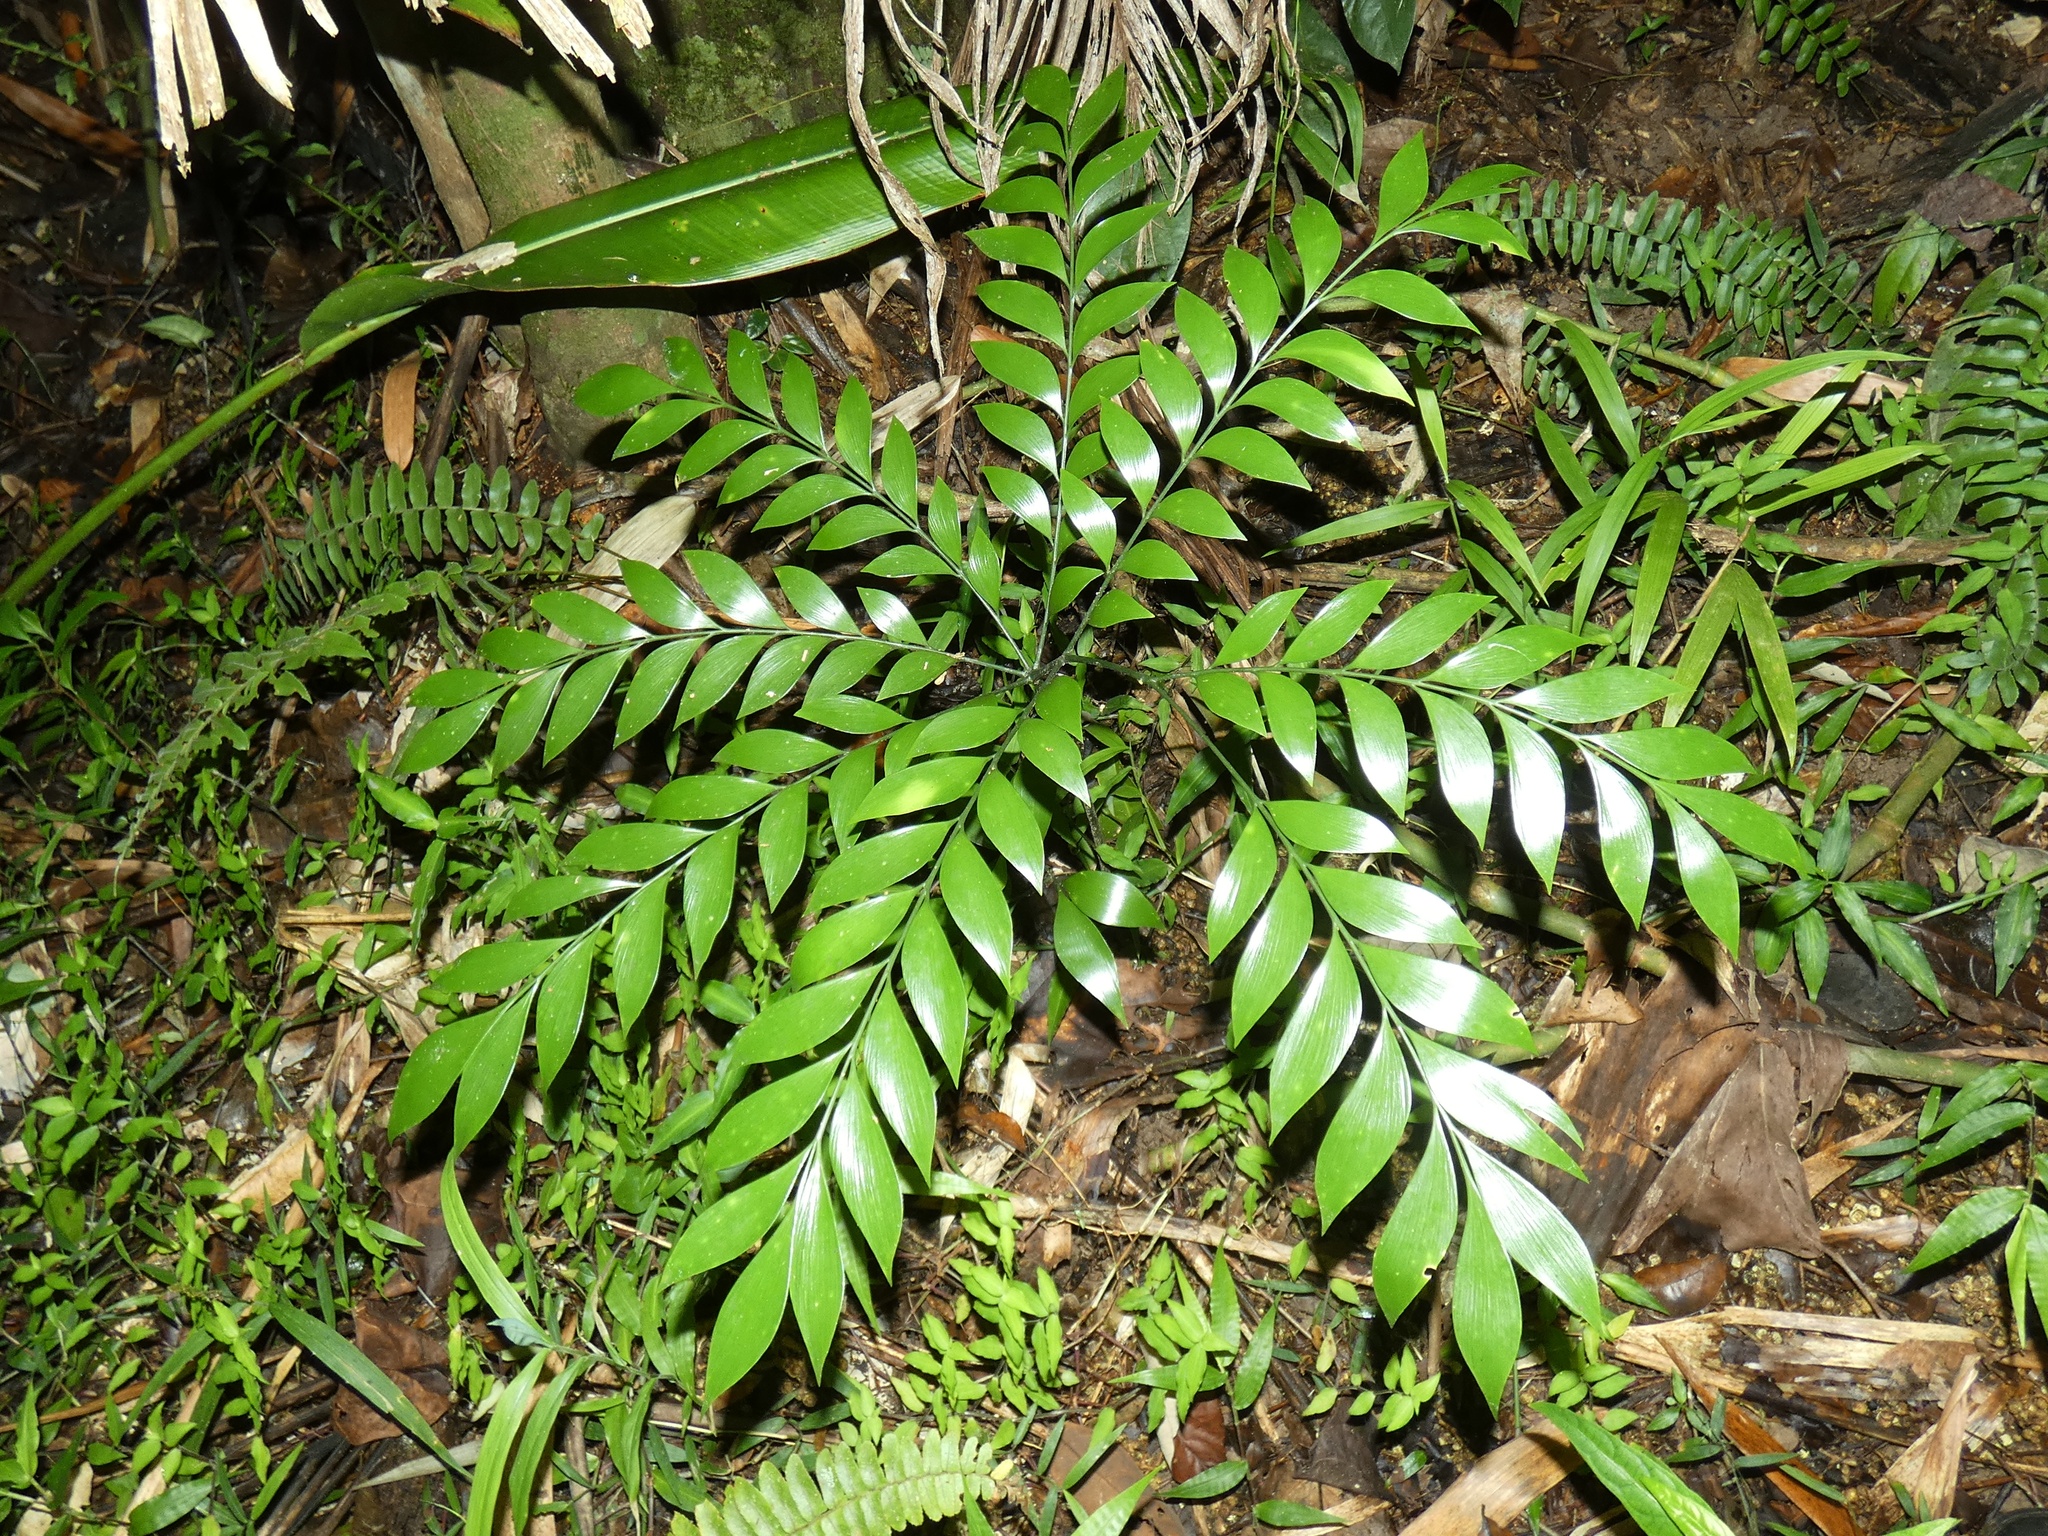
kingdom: Plantae
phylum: Tracheophyta
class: Cycadopsida
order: Cycadales
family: Zamiaceae
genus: Bowenia
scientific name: Bowenia spectabilis
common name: Zamia-fern
